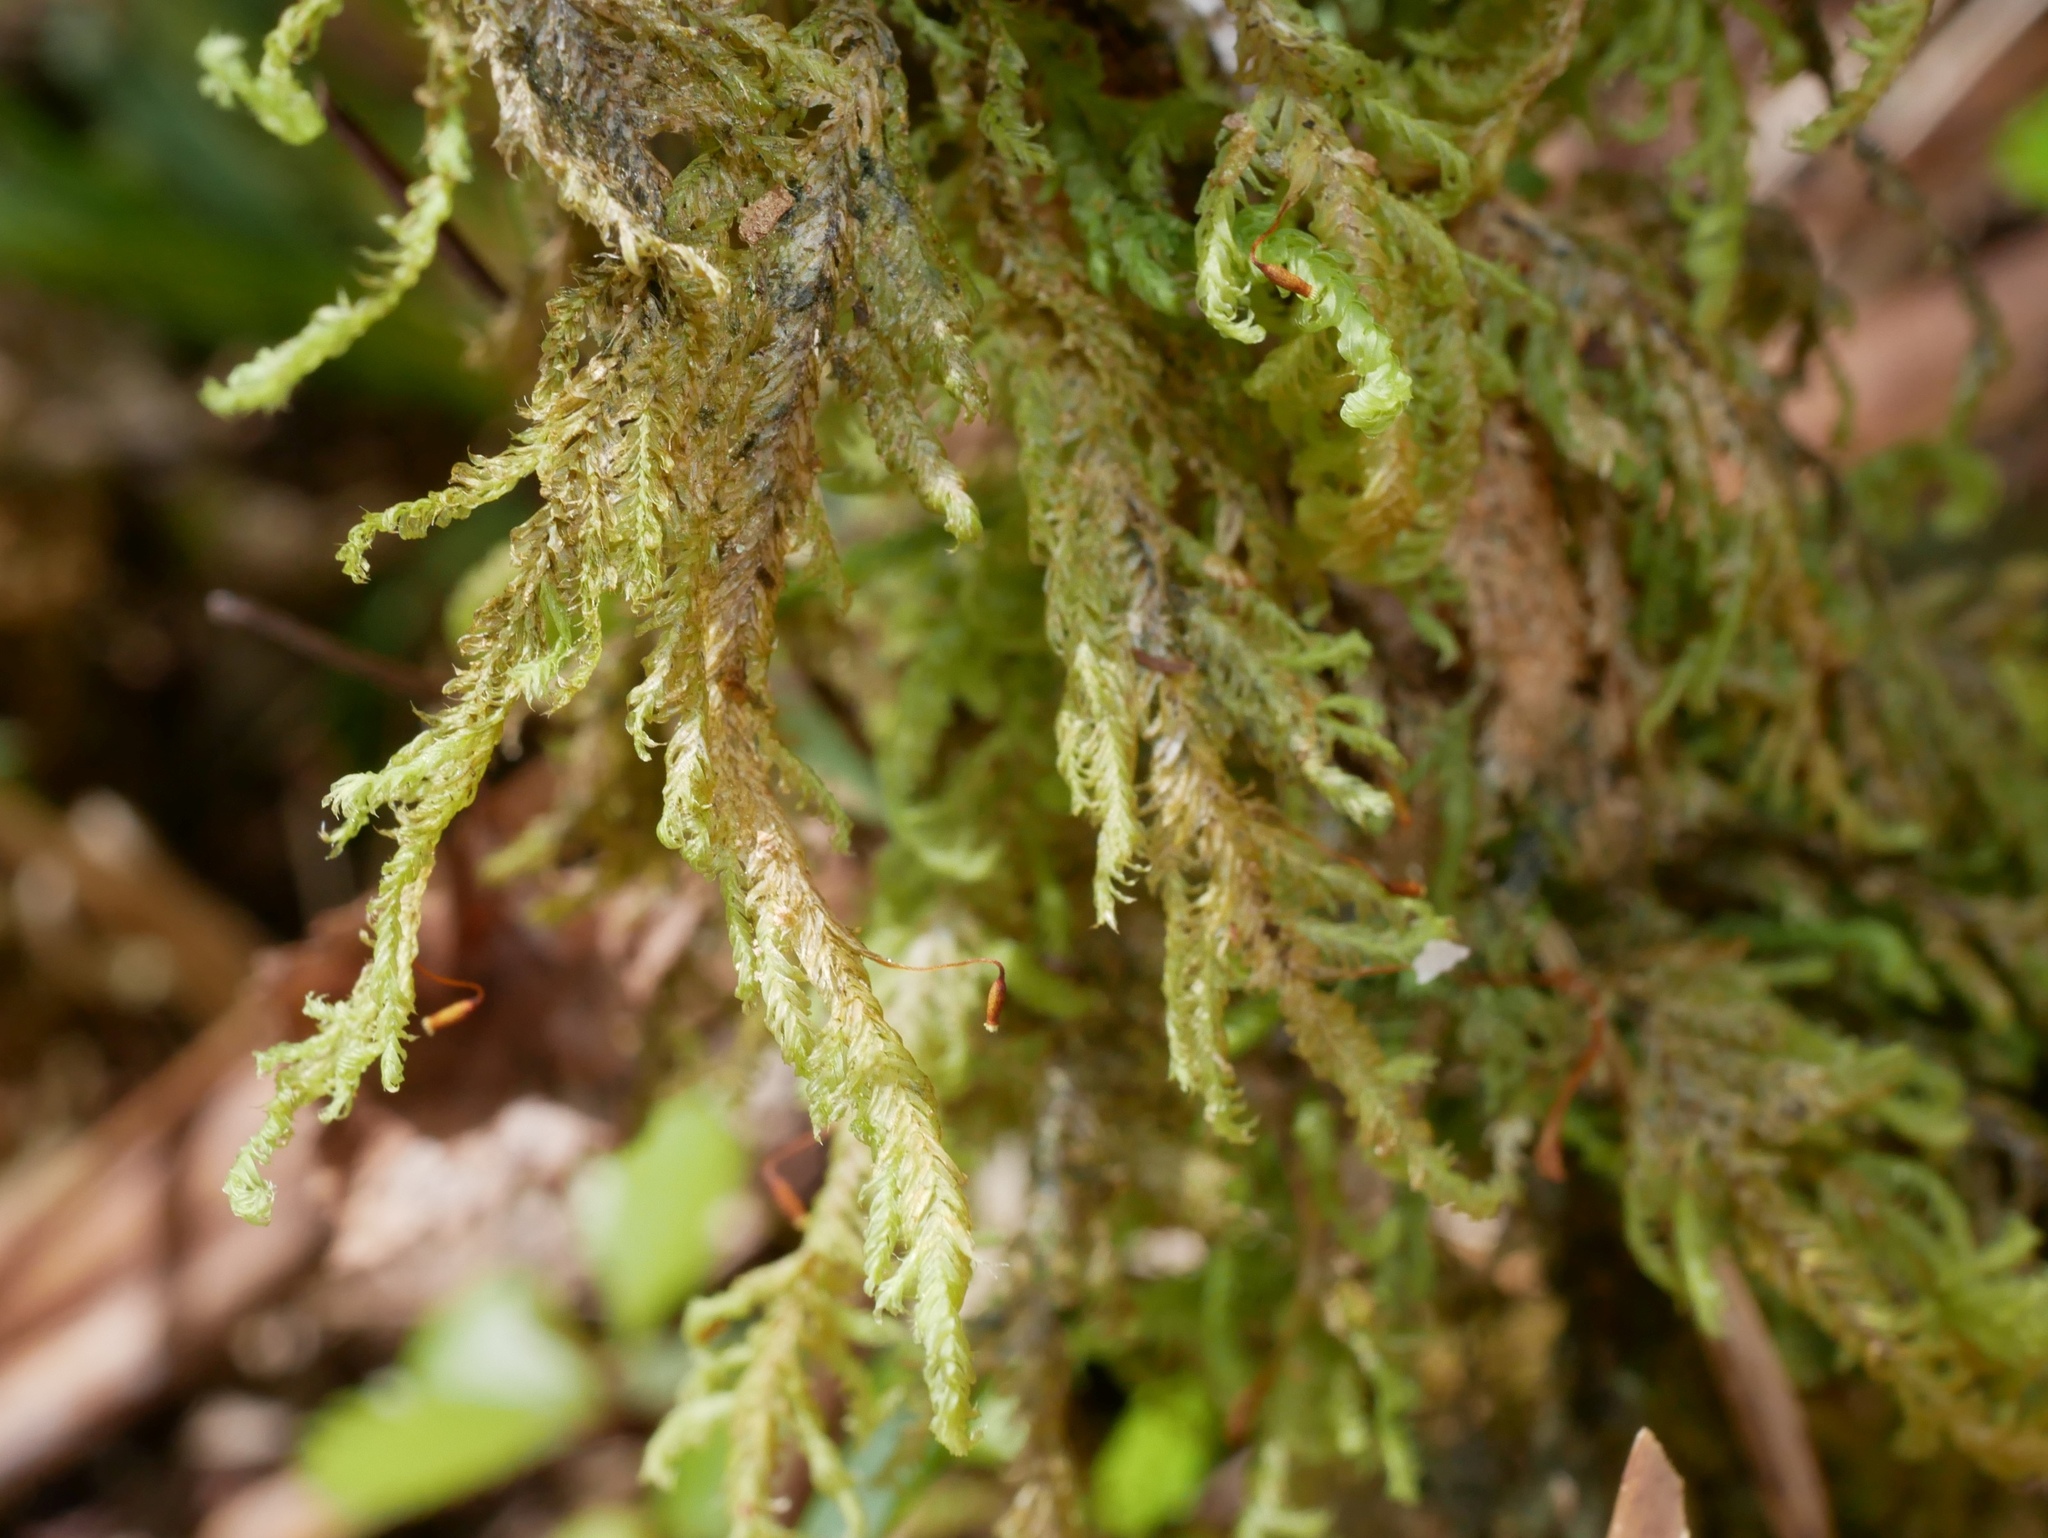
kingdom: Plantae
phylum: Bryophyta
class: Bryopsida
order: Hypopterygiales
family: Hypopterygiaceae
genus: Lopidium
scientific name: Lopidium concinnum
